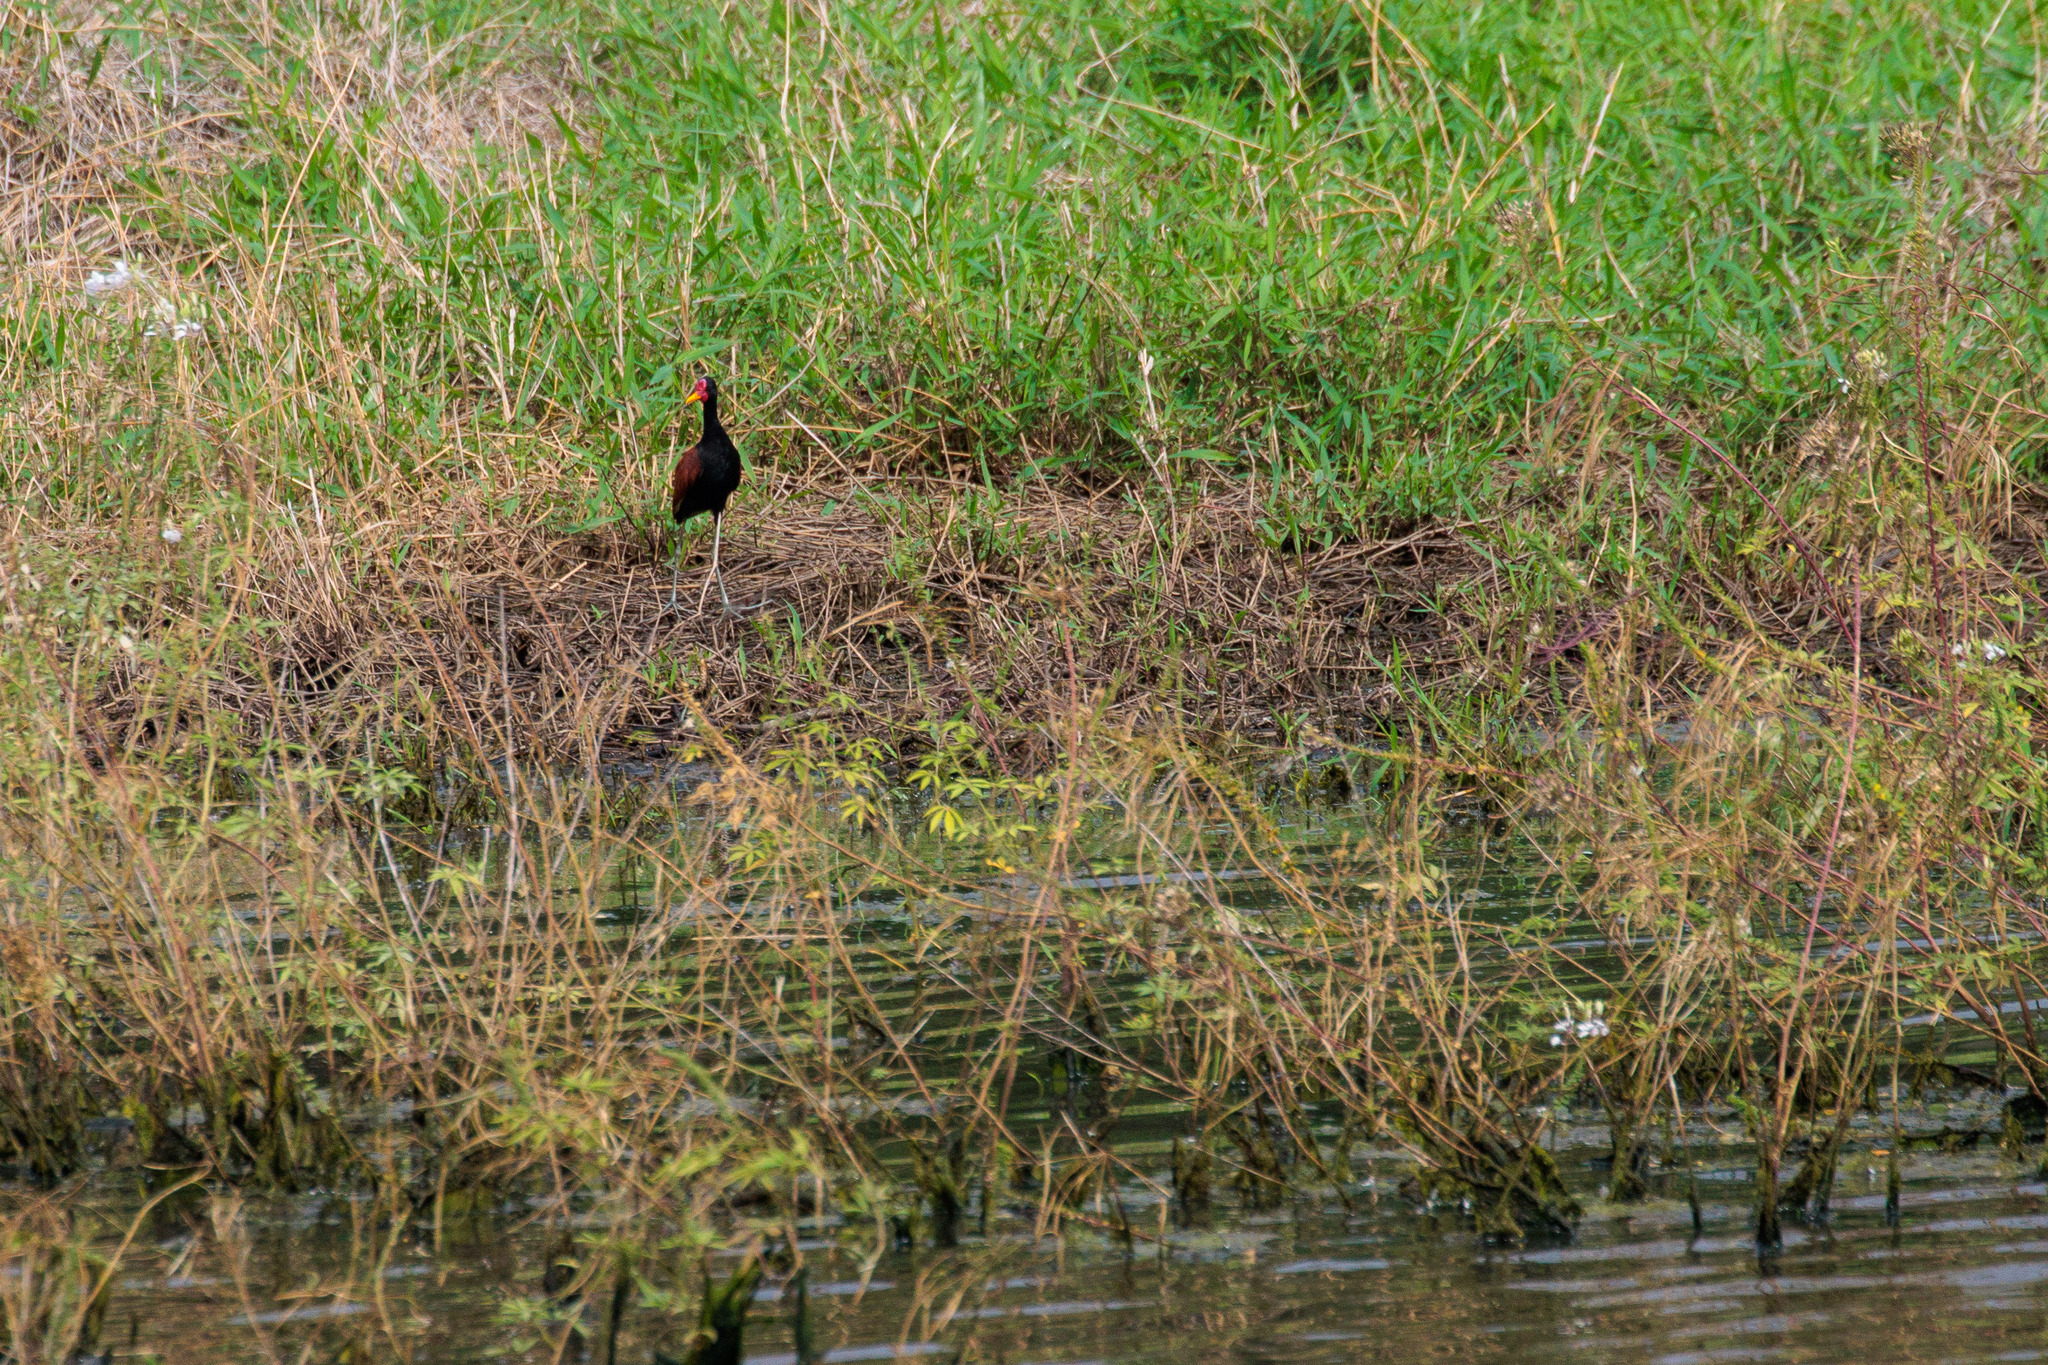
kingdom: Animalia
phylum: Chordata
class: Aves
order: Charadriiformes
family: Jacanidae
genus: Jacana
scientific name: Jacana jacana
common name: Wattled jacana
